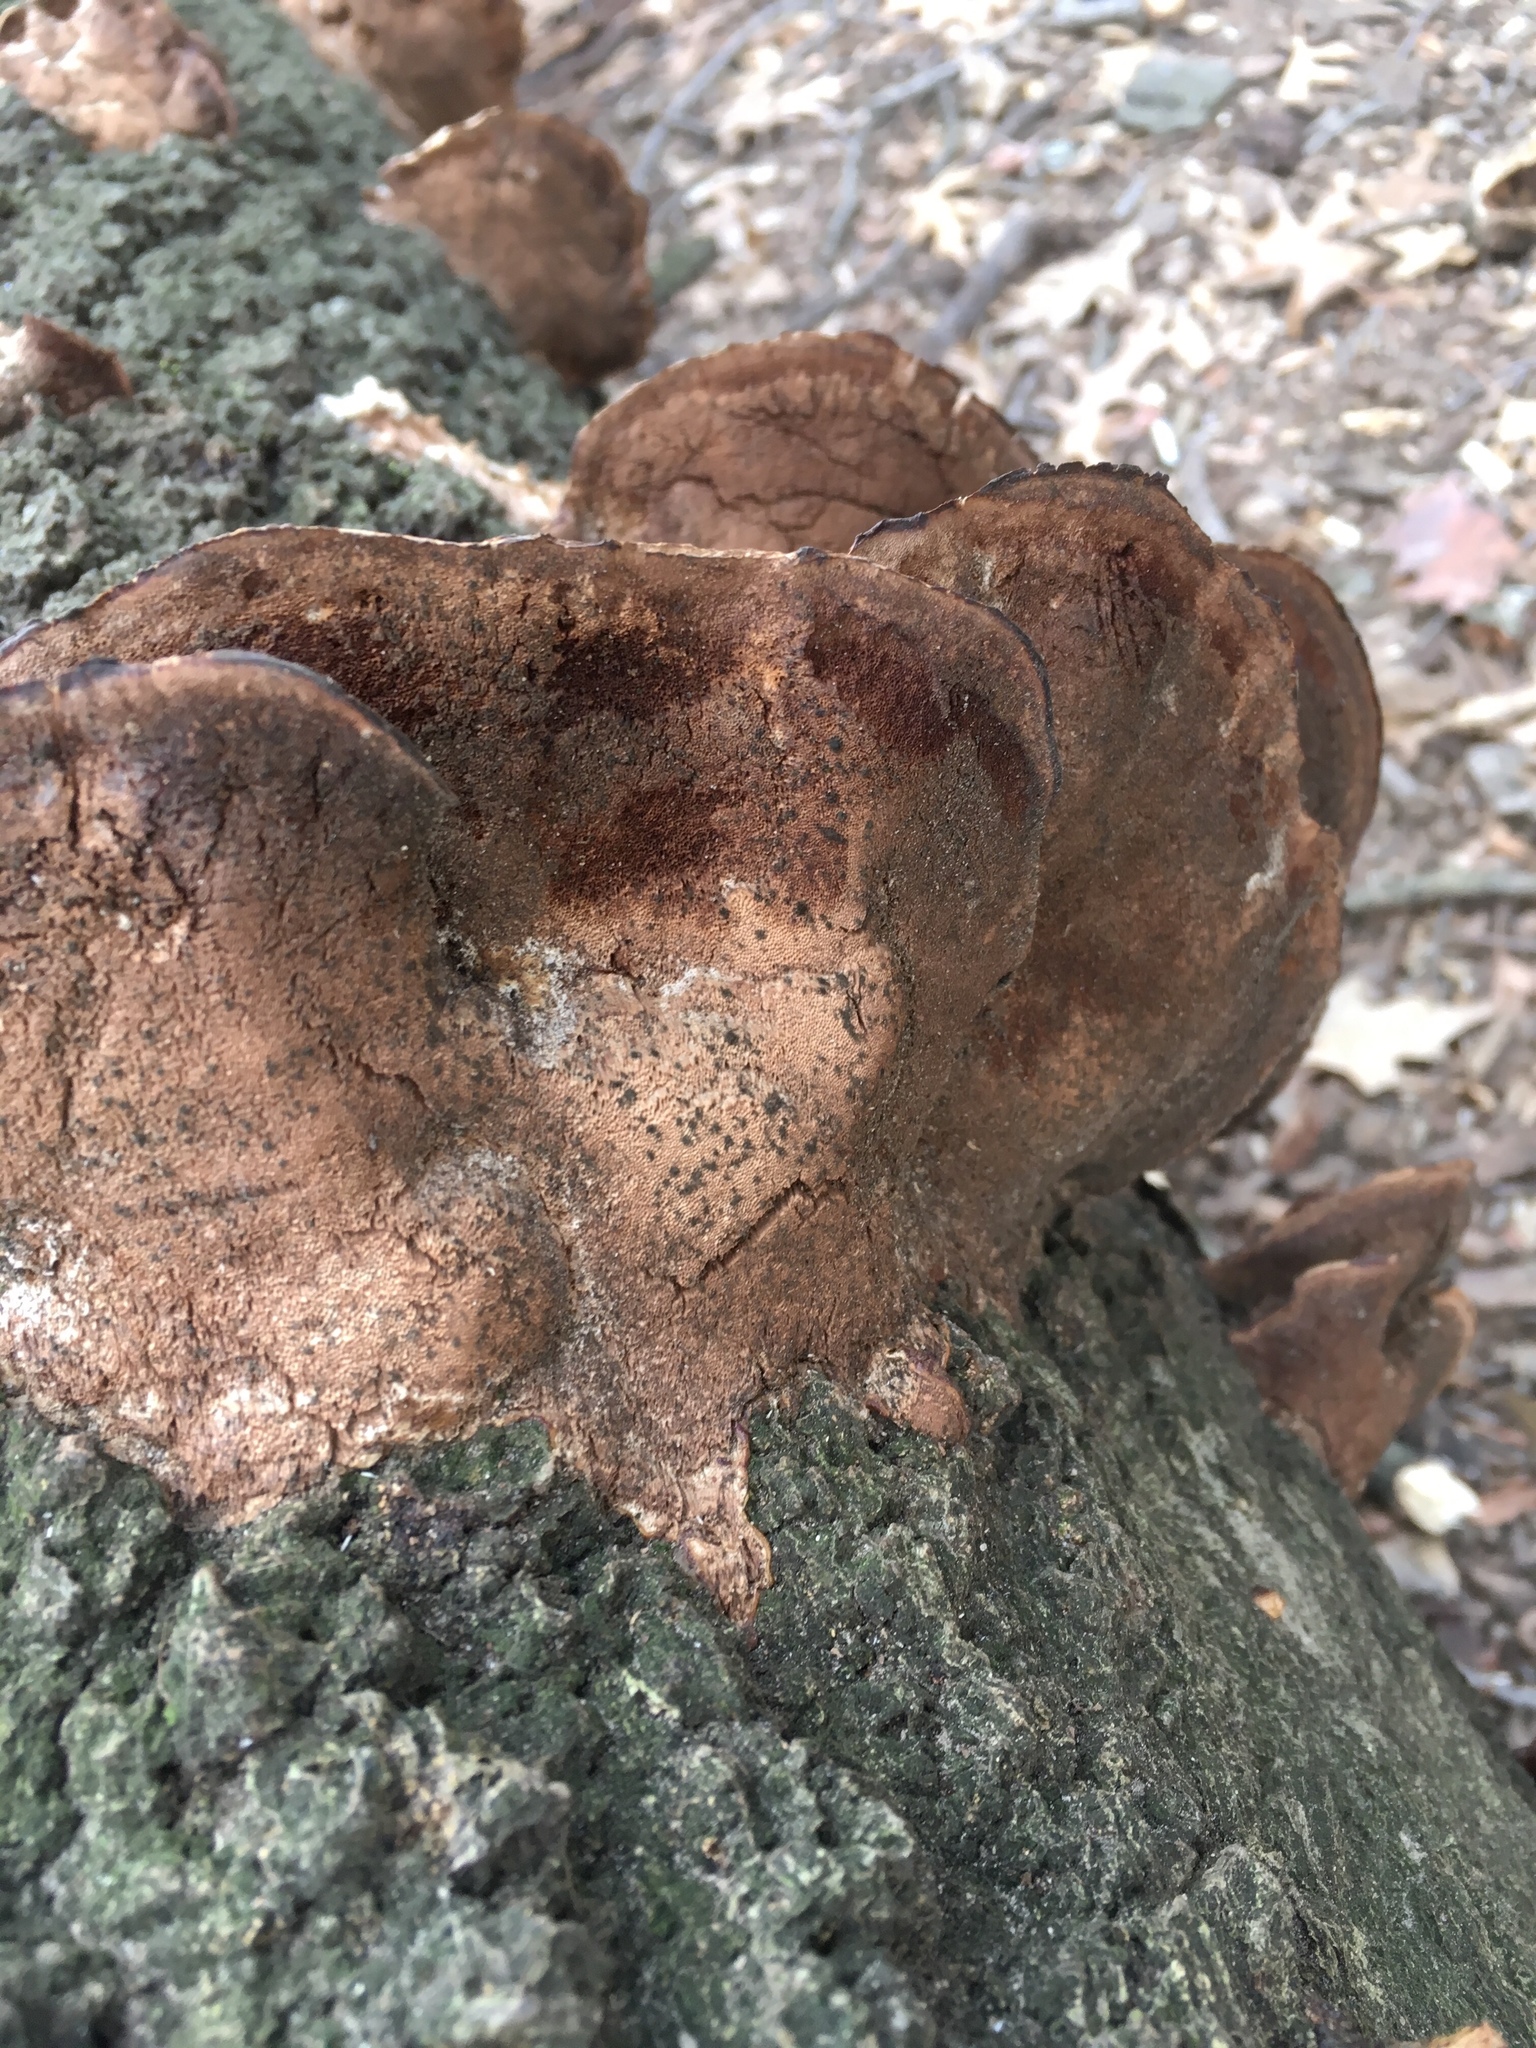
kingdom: Fungi
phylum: Basidiomycota
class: Agaricomycetes
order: Polyporales
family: Polyporaceae
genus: Ganoderma
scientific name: Ganoderma resinaceum
